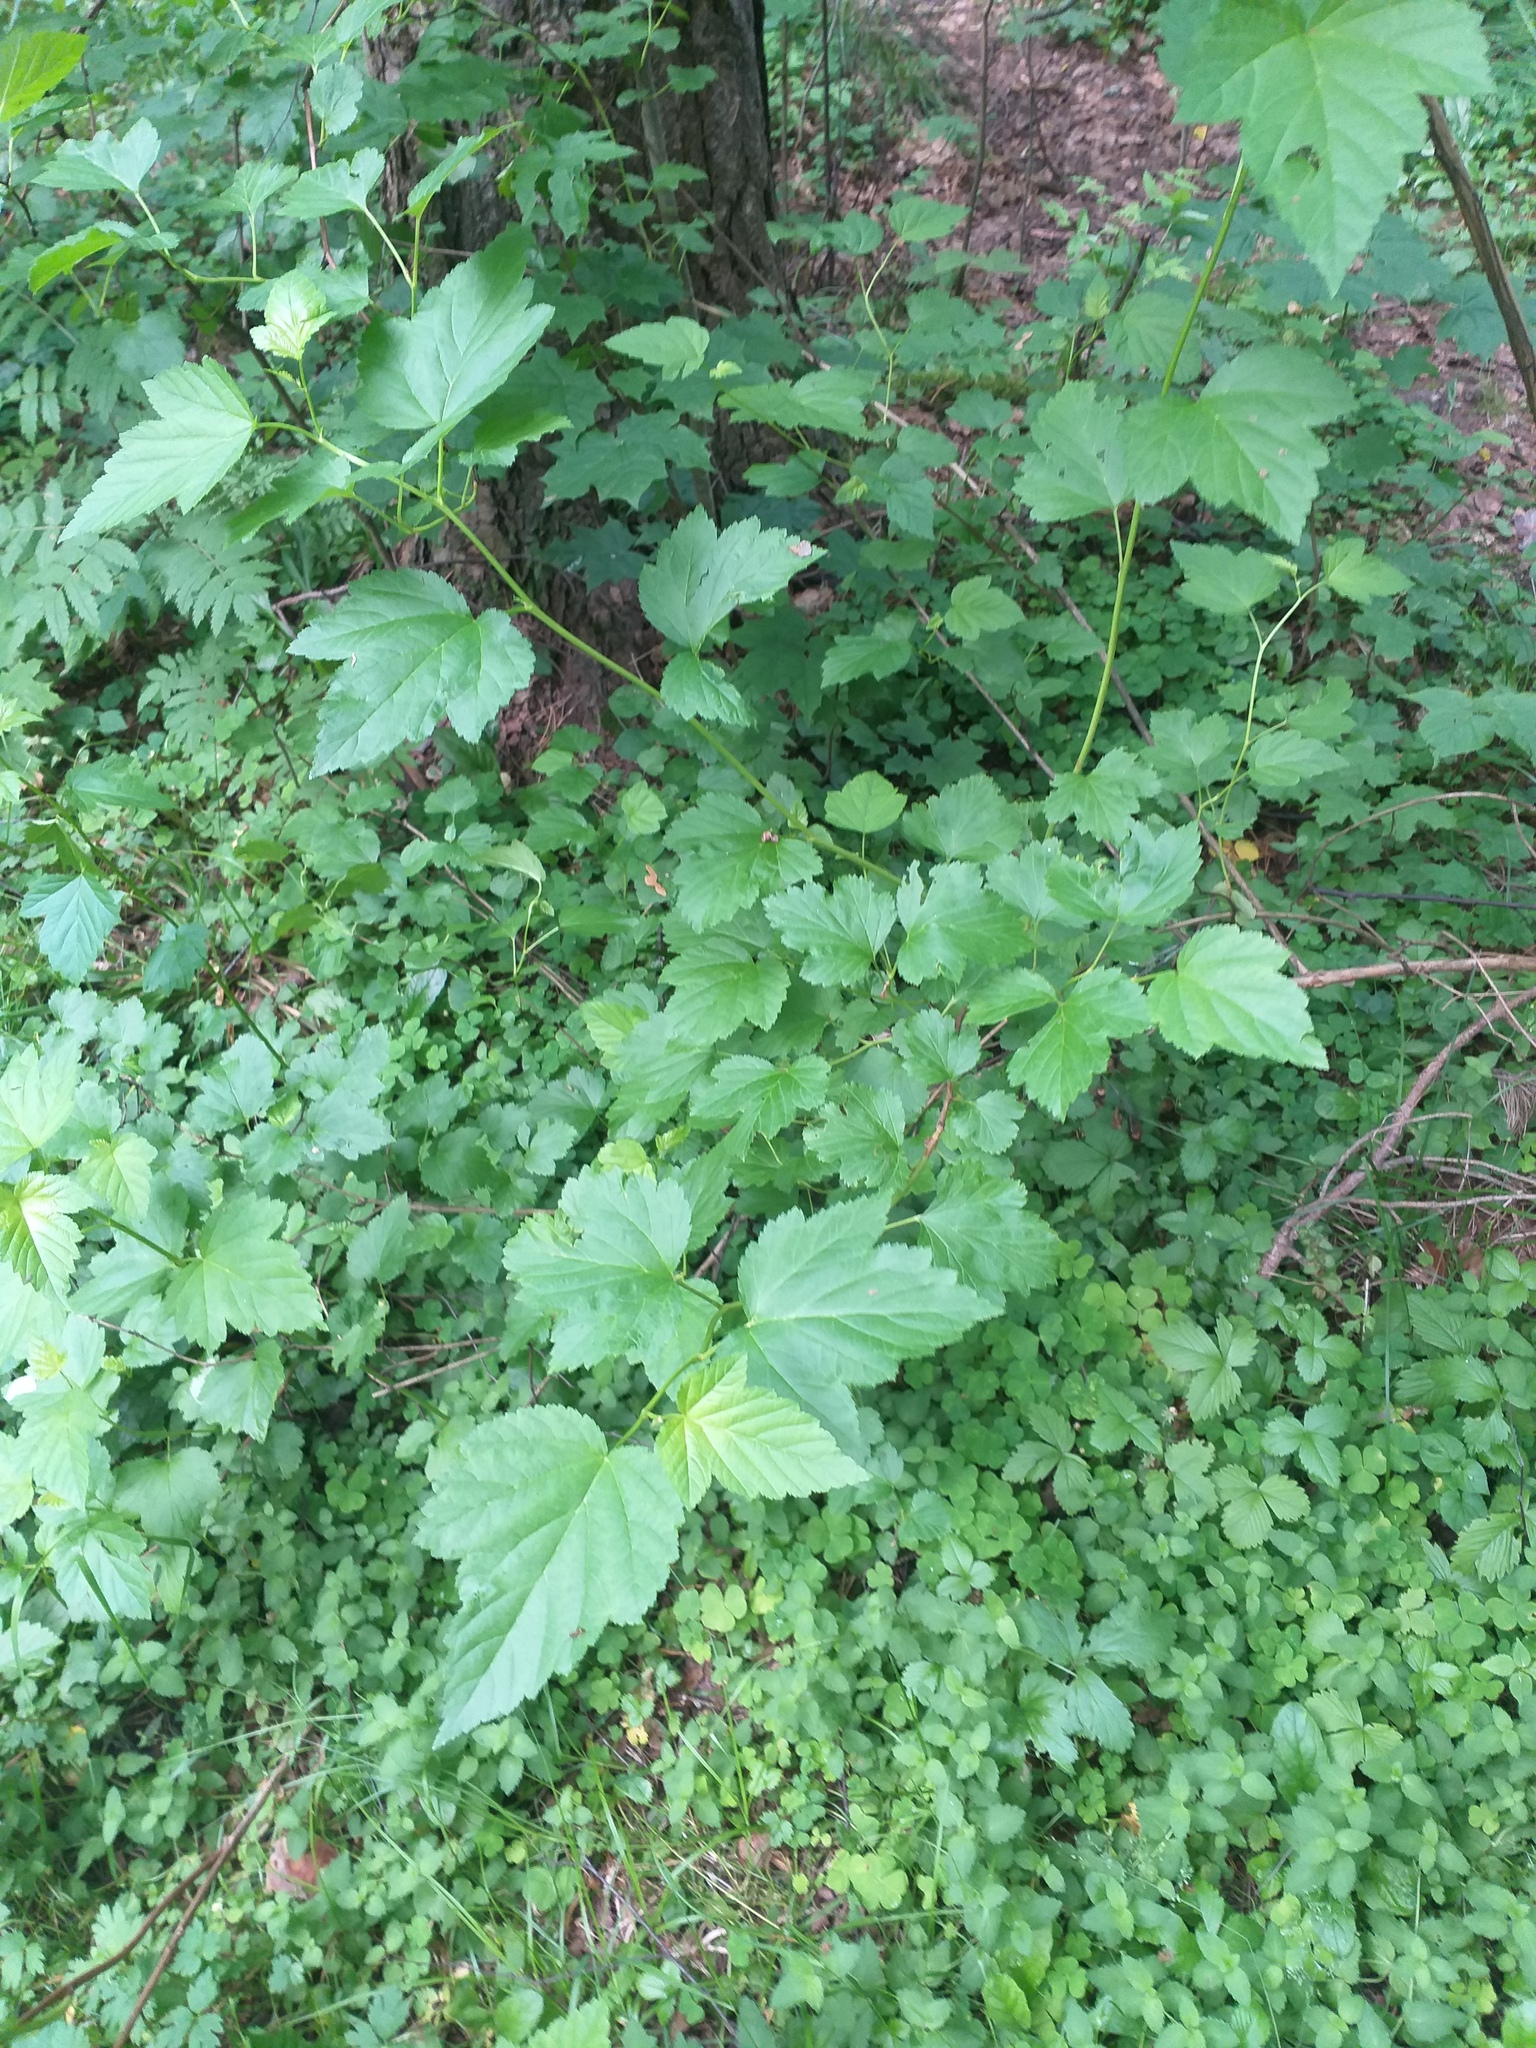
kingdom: Plantae
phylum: Tracheophyta
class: Magnoliopsida
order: Rosales
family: Rosaceae
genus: Physocarpus
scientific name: Physocarpus opulifolius
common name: Ninebark
